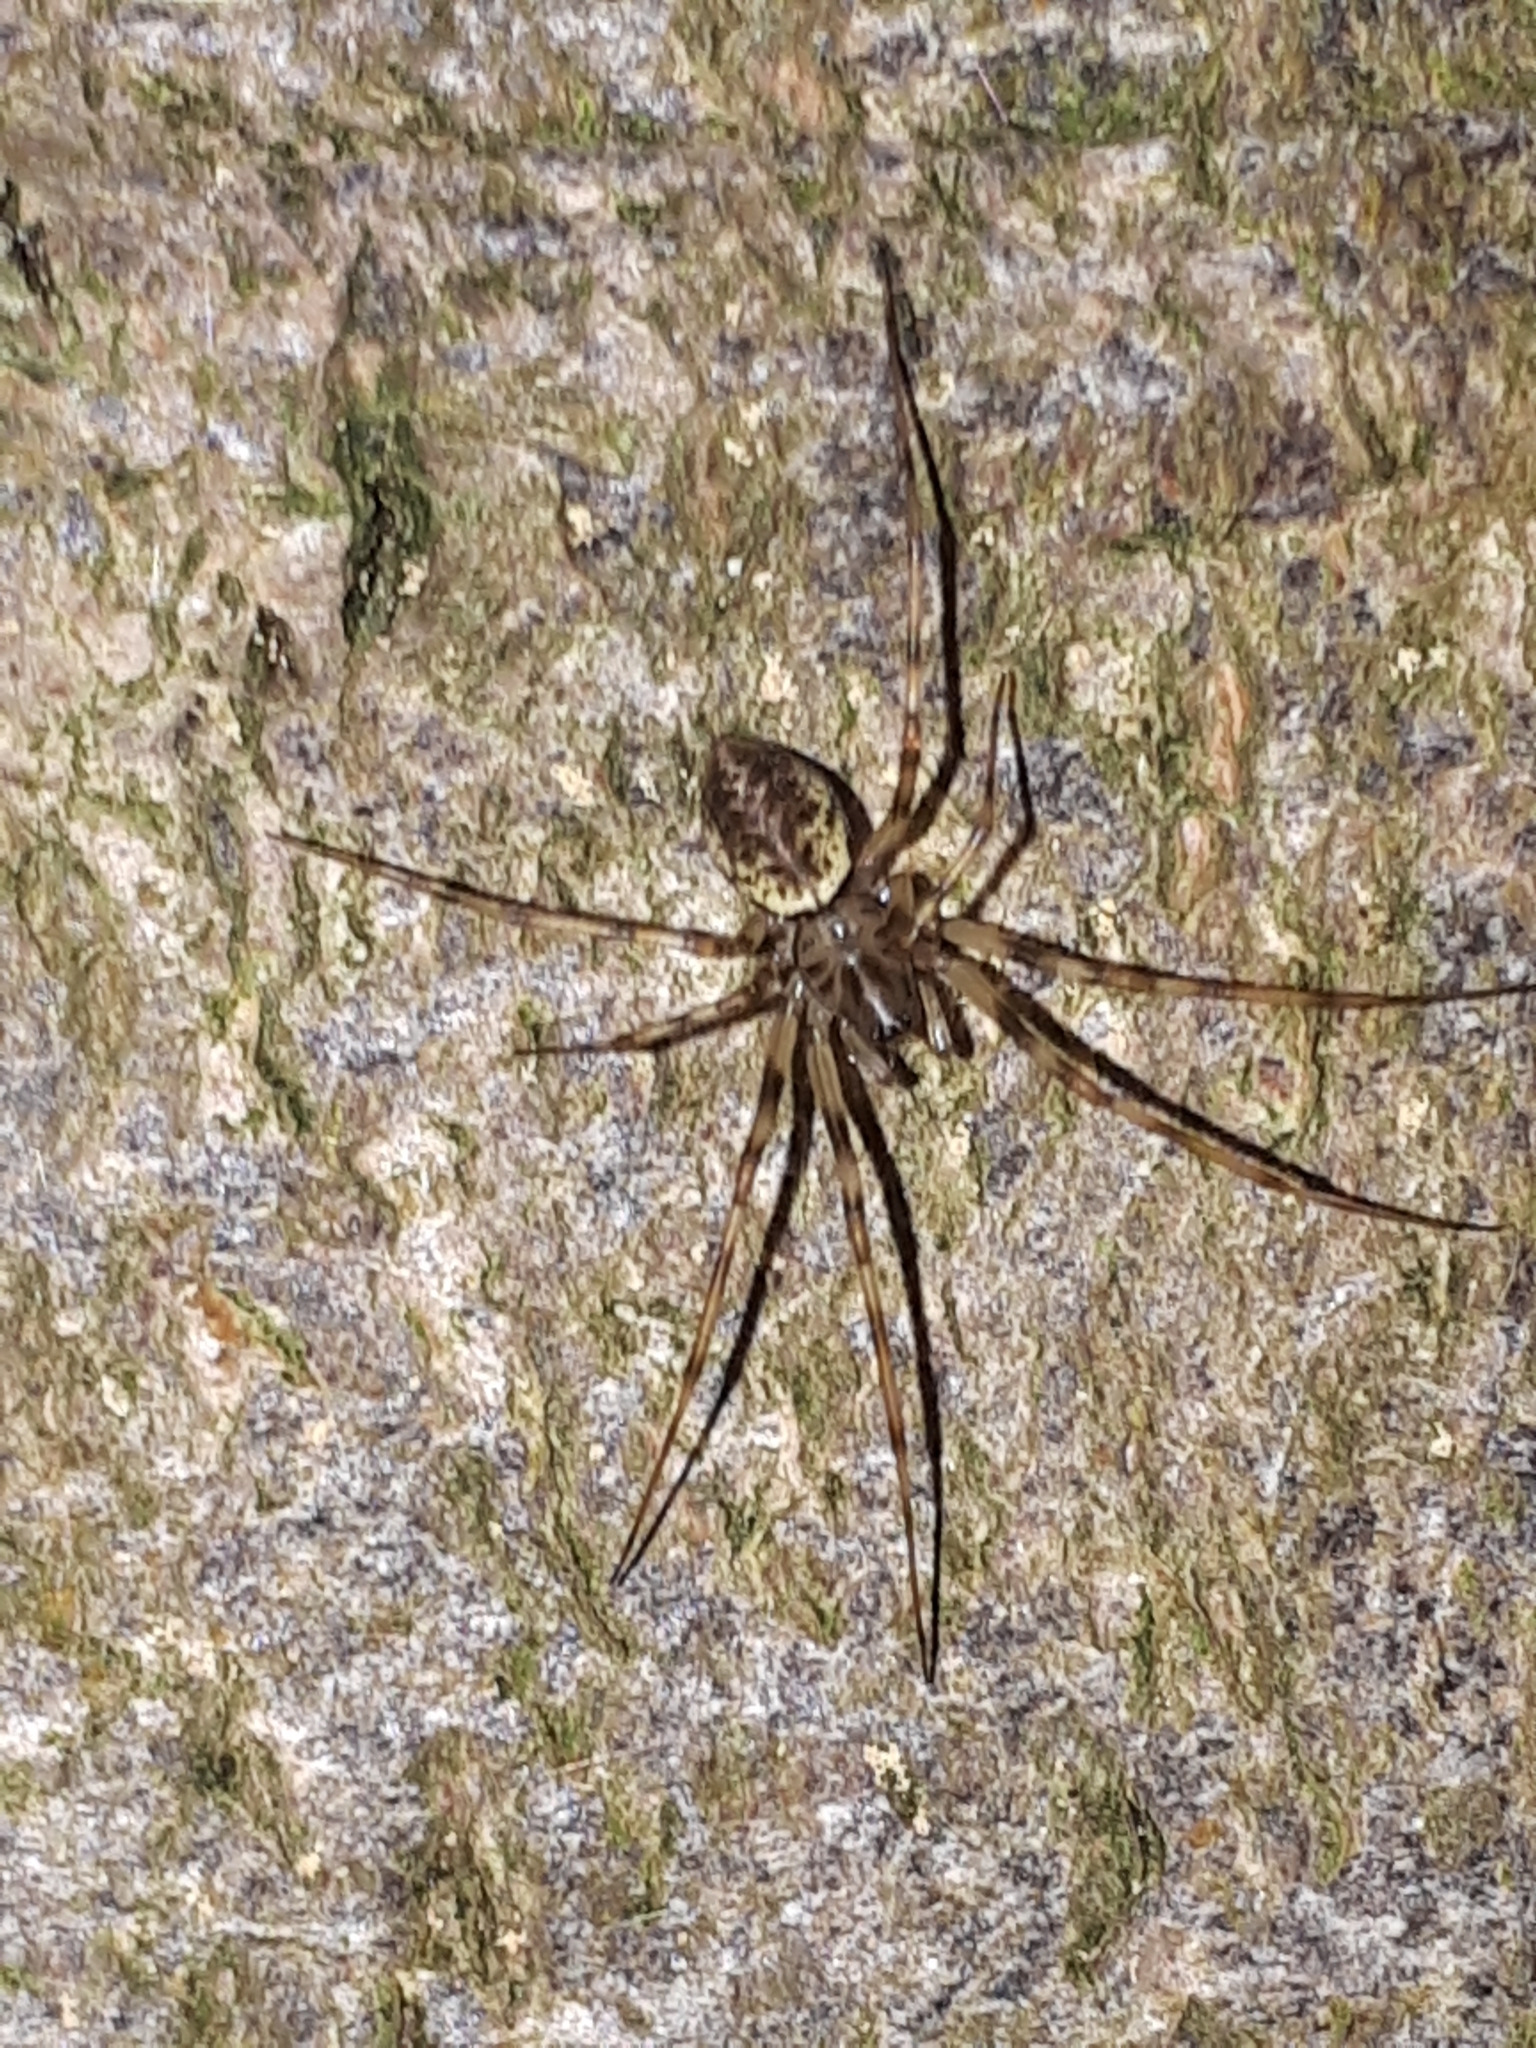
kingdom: Animalia
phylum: Arthropoda
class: Arachnida
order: Araneae
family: Linyphiidae
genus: Drapetisca
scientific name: Drapetisca socialis
